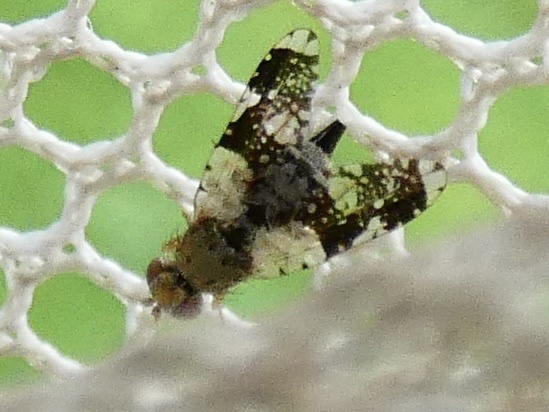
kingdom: Animalia
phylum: Arthropoda
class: Insecta
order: Diptera
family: Tephritidae
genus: Tephritis
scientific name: Tephritis formosa
